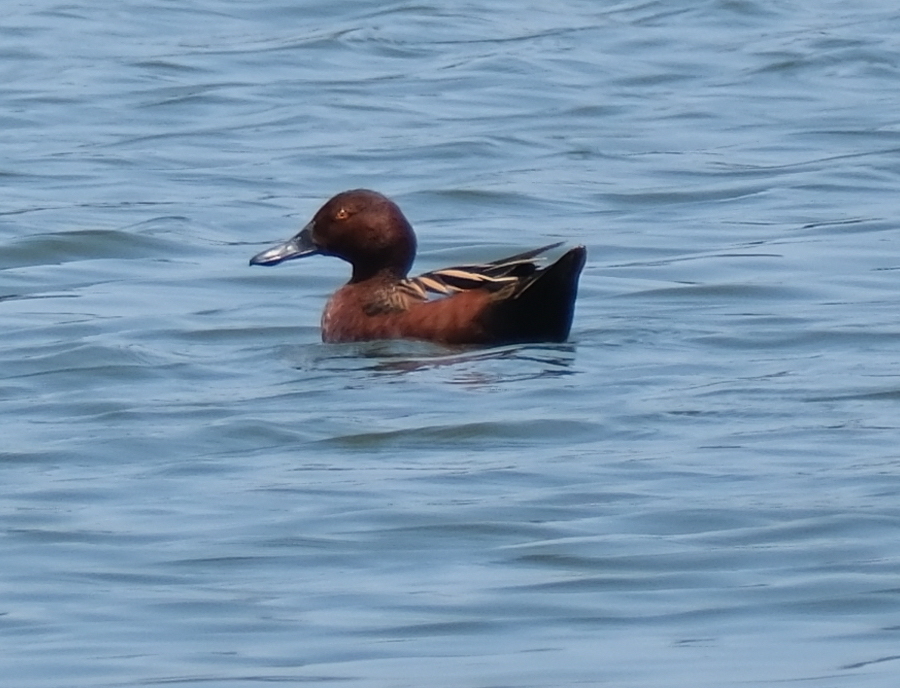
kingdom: Animalia
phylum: Chordata
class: Aves
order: Anseriformes
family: Anatidae
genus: Spatula
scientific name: Spatula cyanoptera
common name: Cinnamon teal
